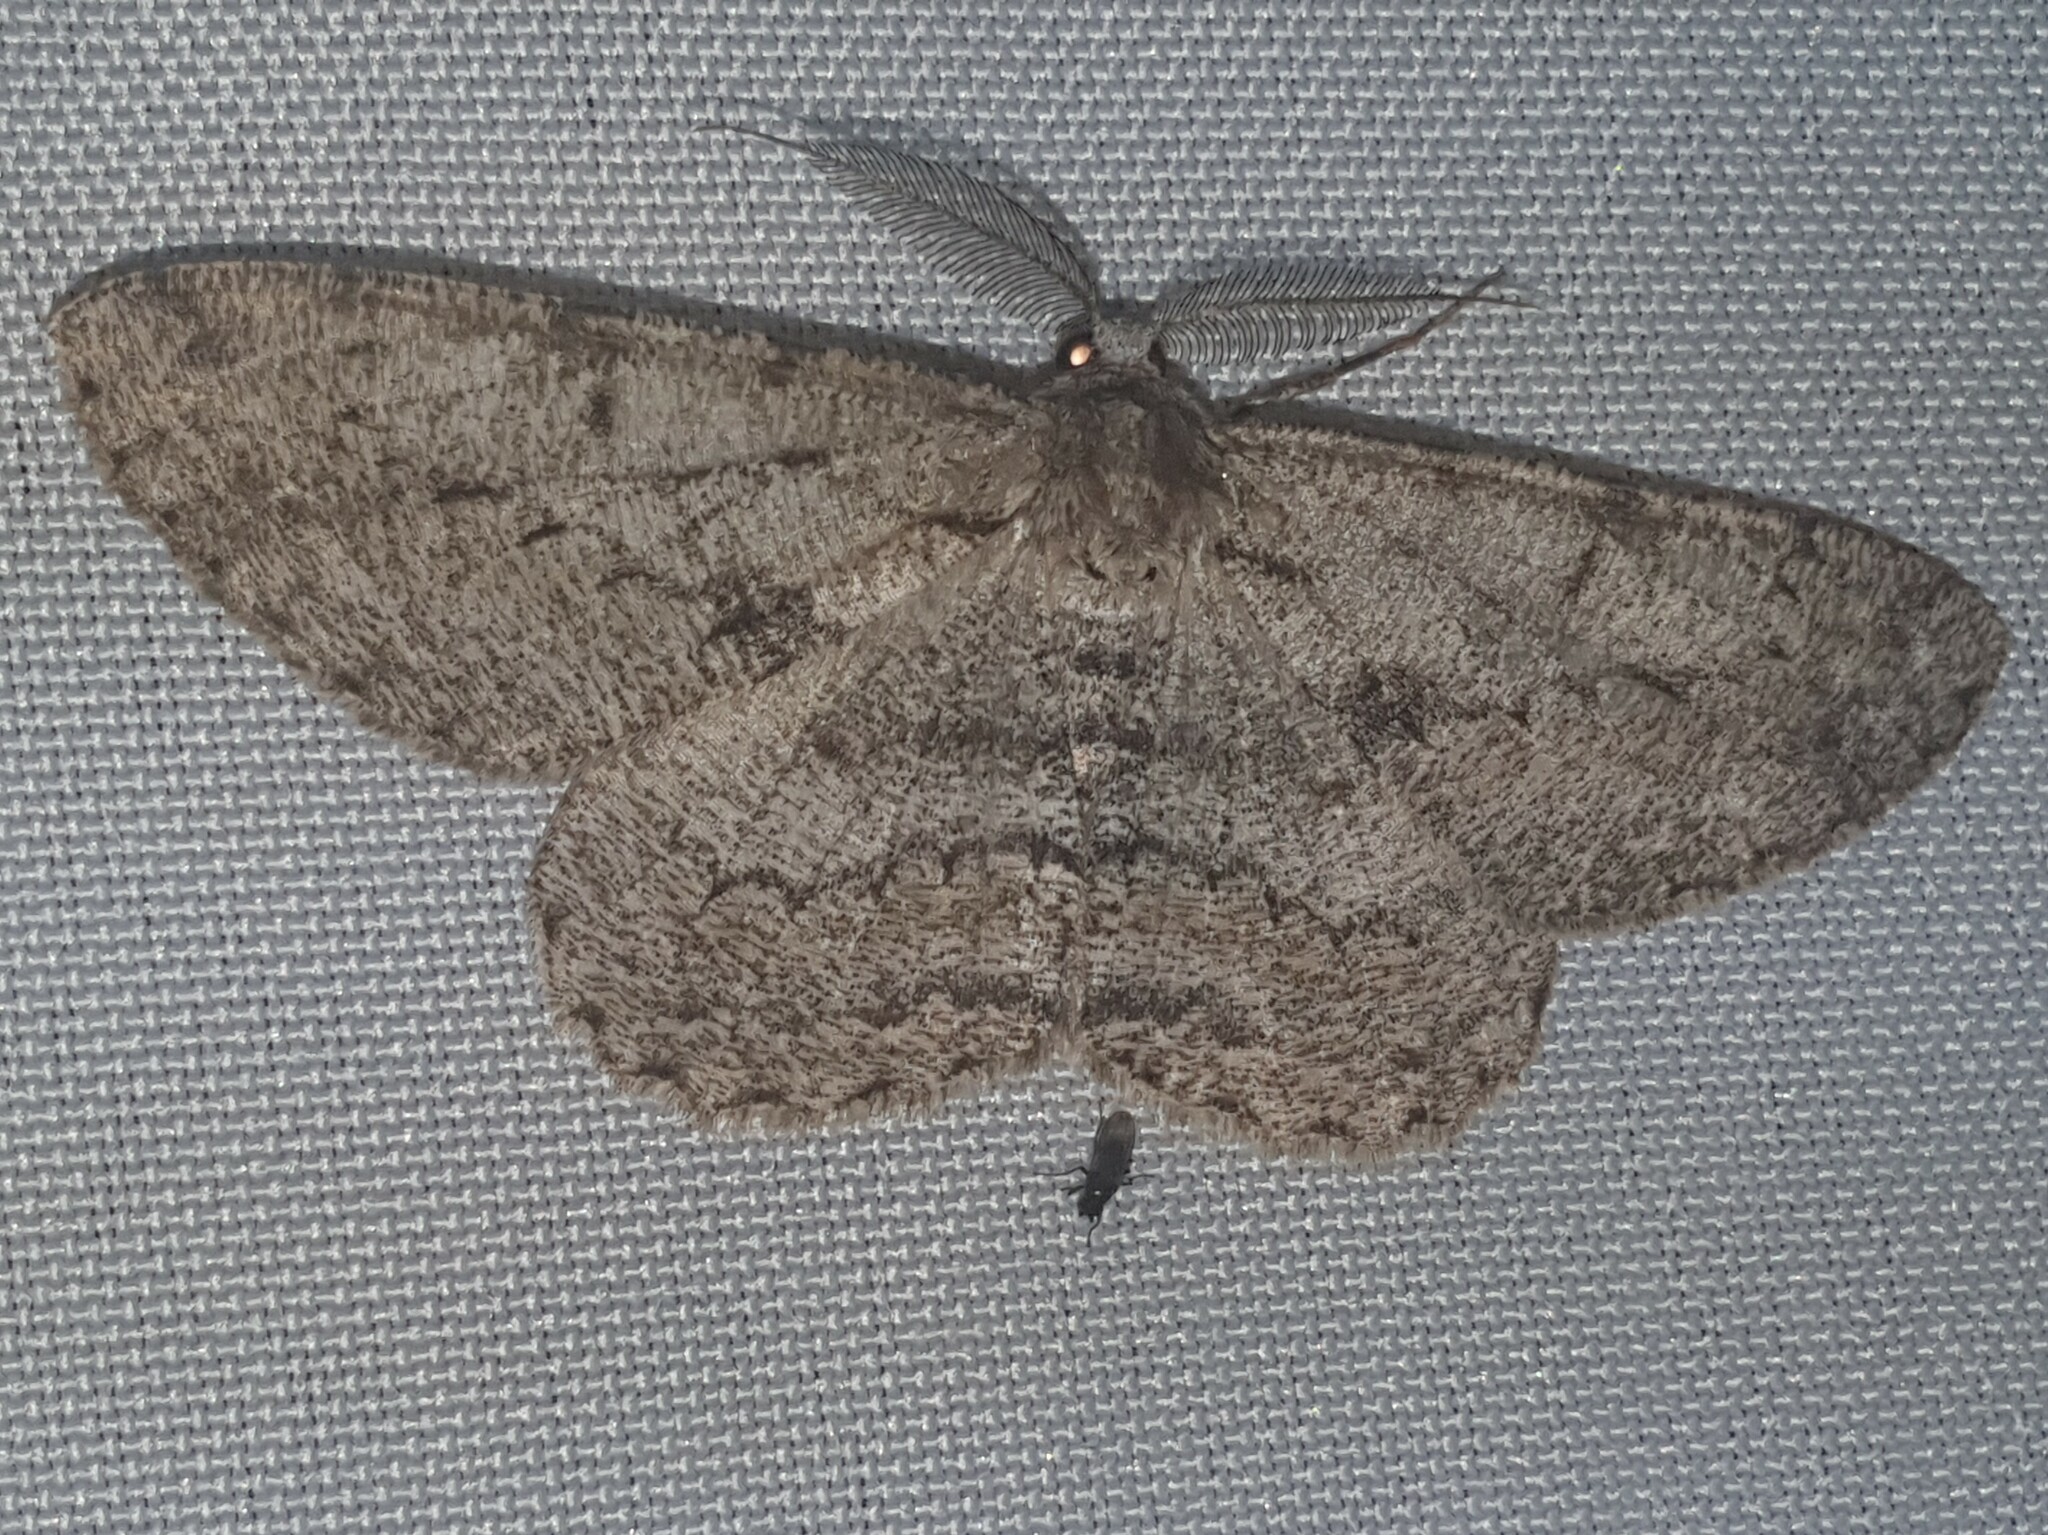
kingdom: Animalia
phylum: Arthropoda
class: Insecta
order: Lepidoptera
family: Geometridae
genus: Hypomecis
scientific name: Hypomecis roboraria
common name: Great oak beauty
